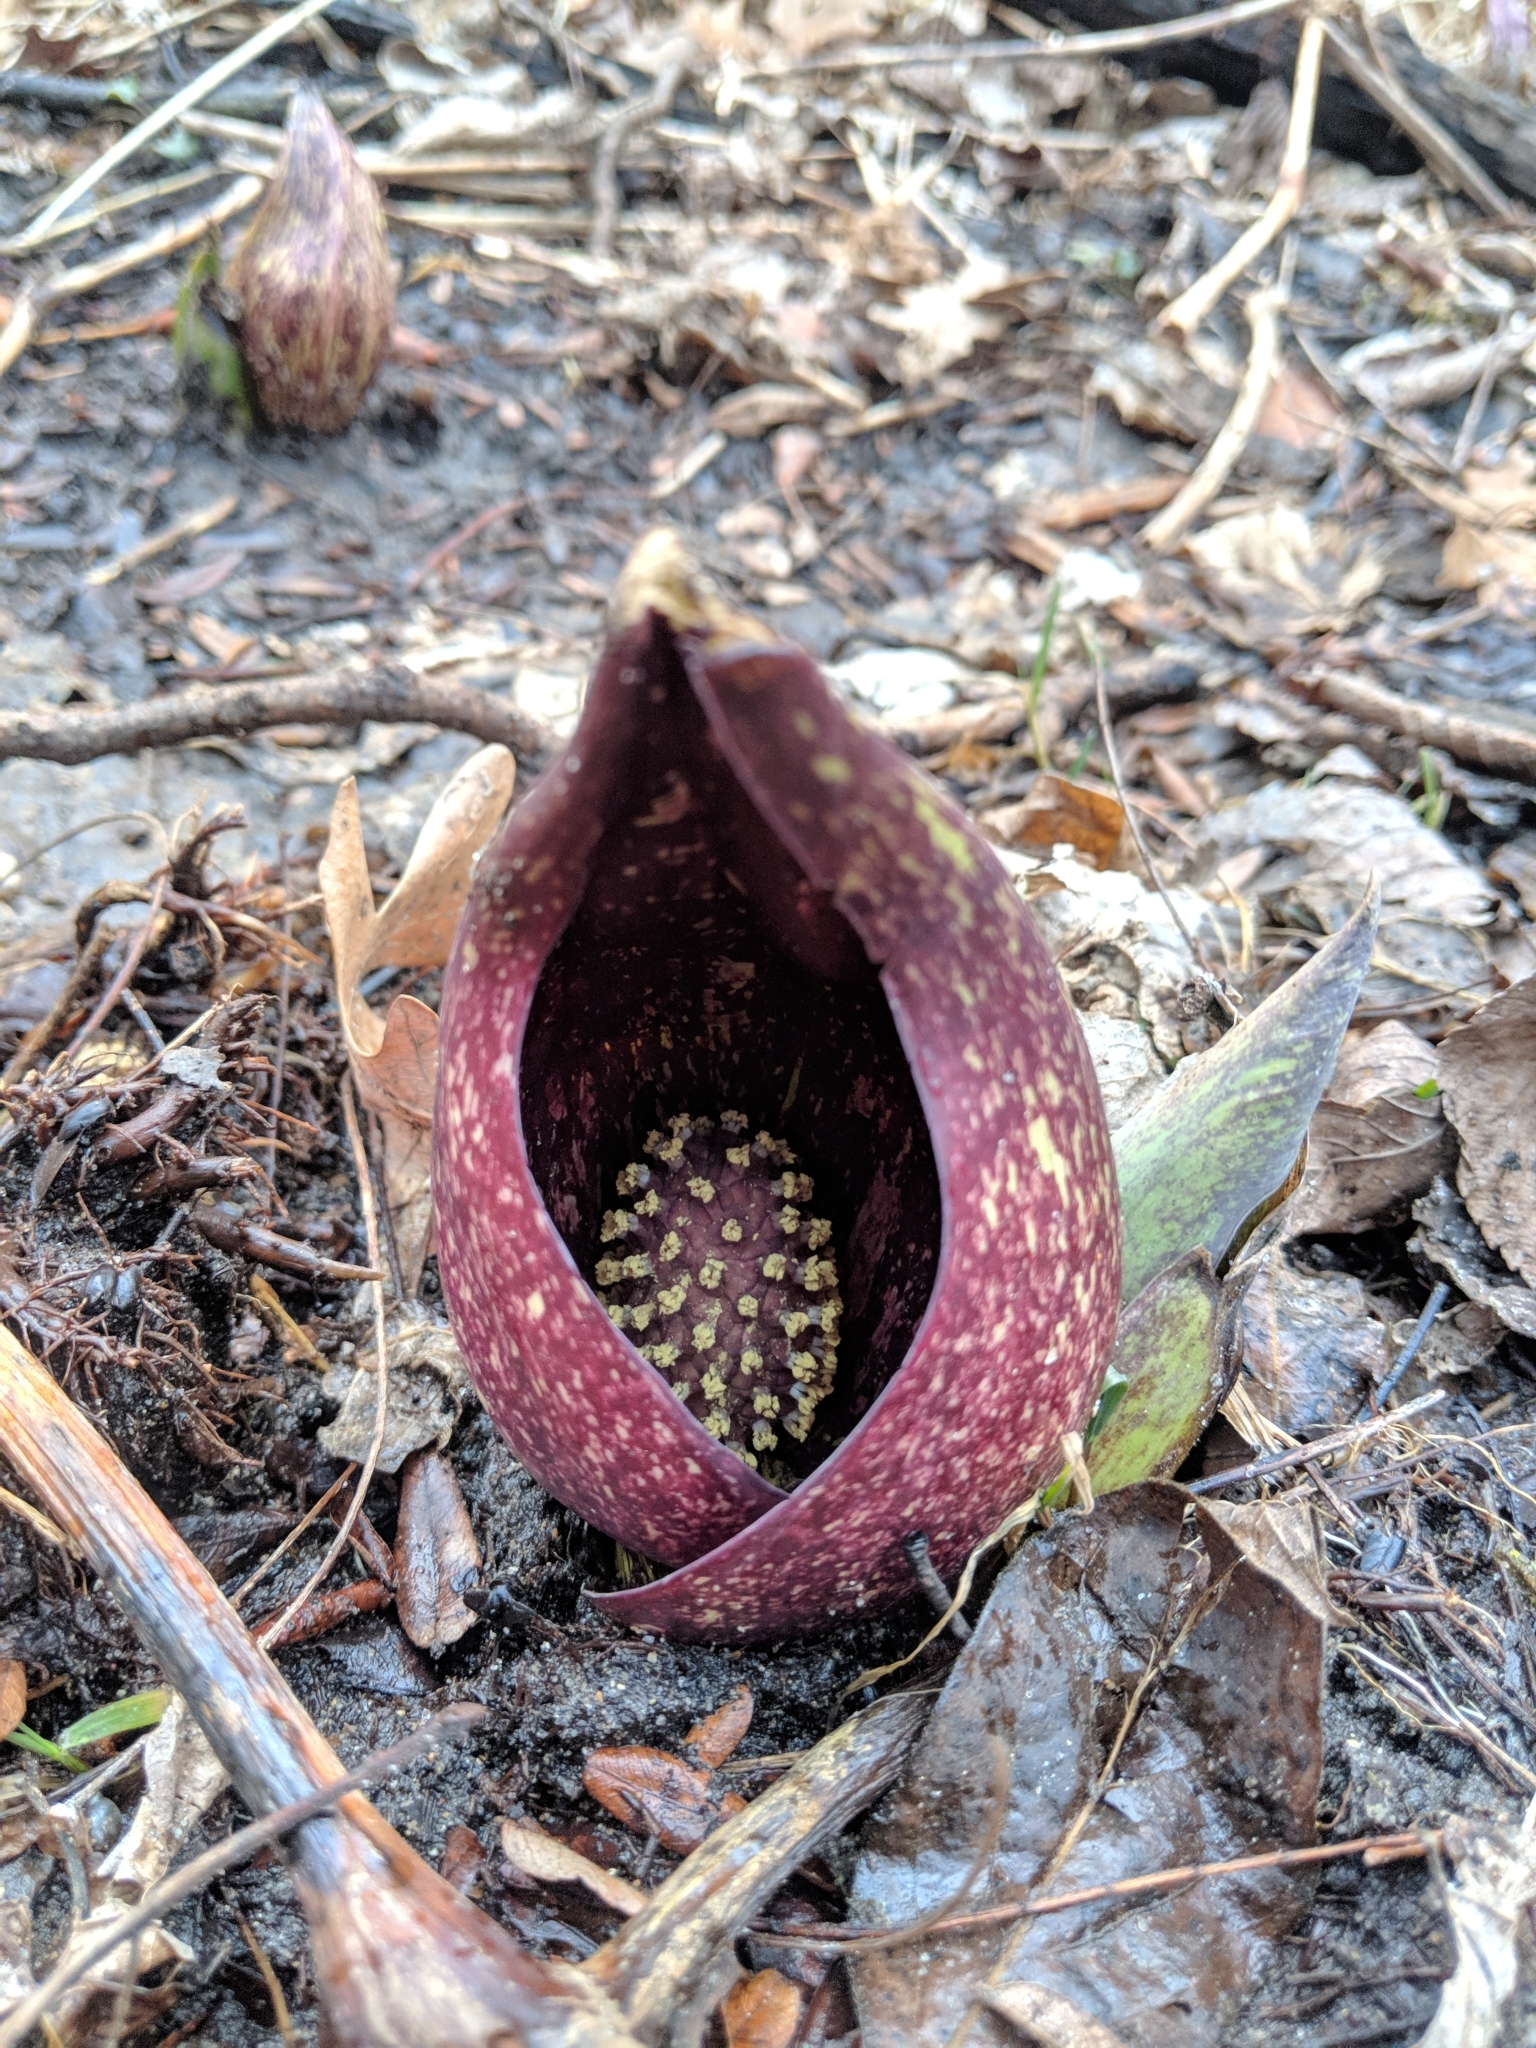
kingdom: Plantae
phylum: Tracheophyta
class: Liliopsida
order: Alismatales
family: Araceae
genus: Symplocarpus
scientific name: Symplocarpus foetidus
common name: Eastern skunk cabbage
